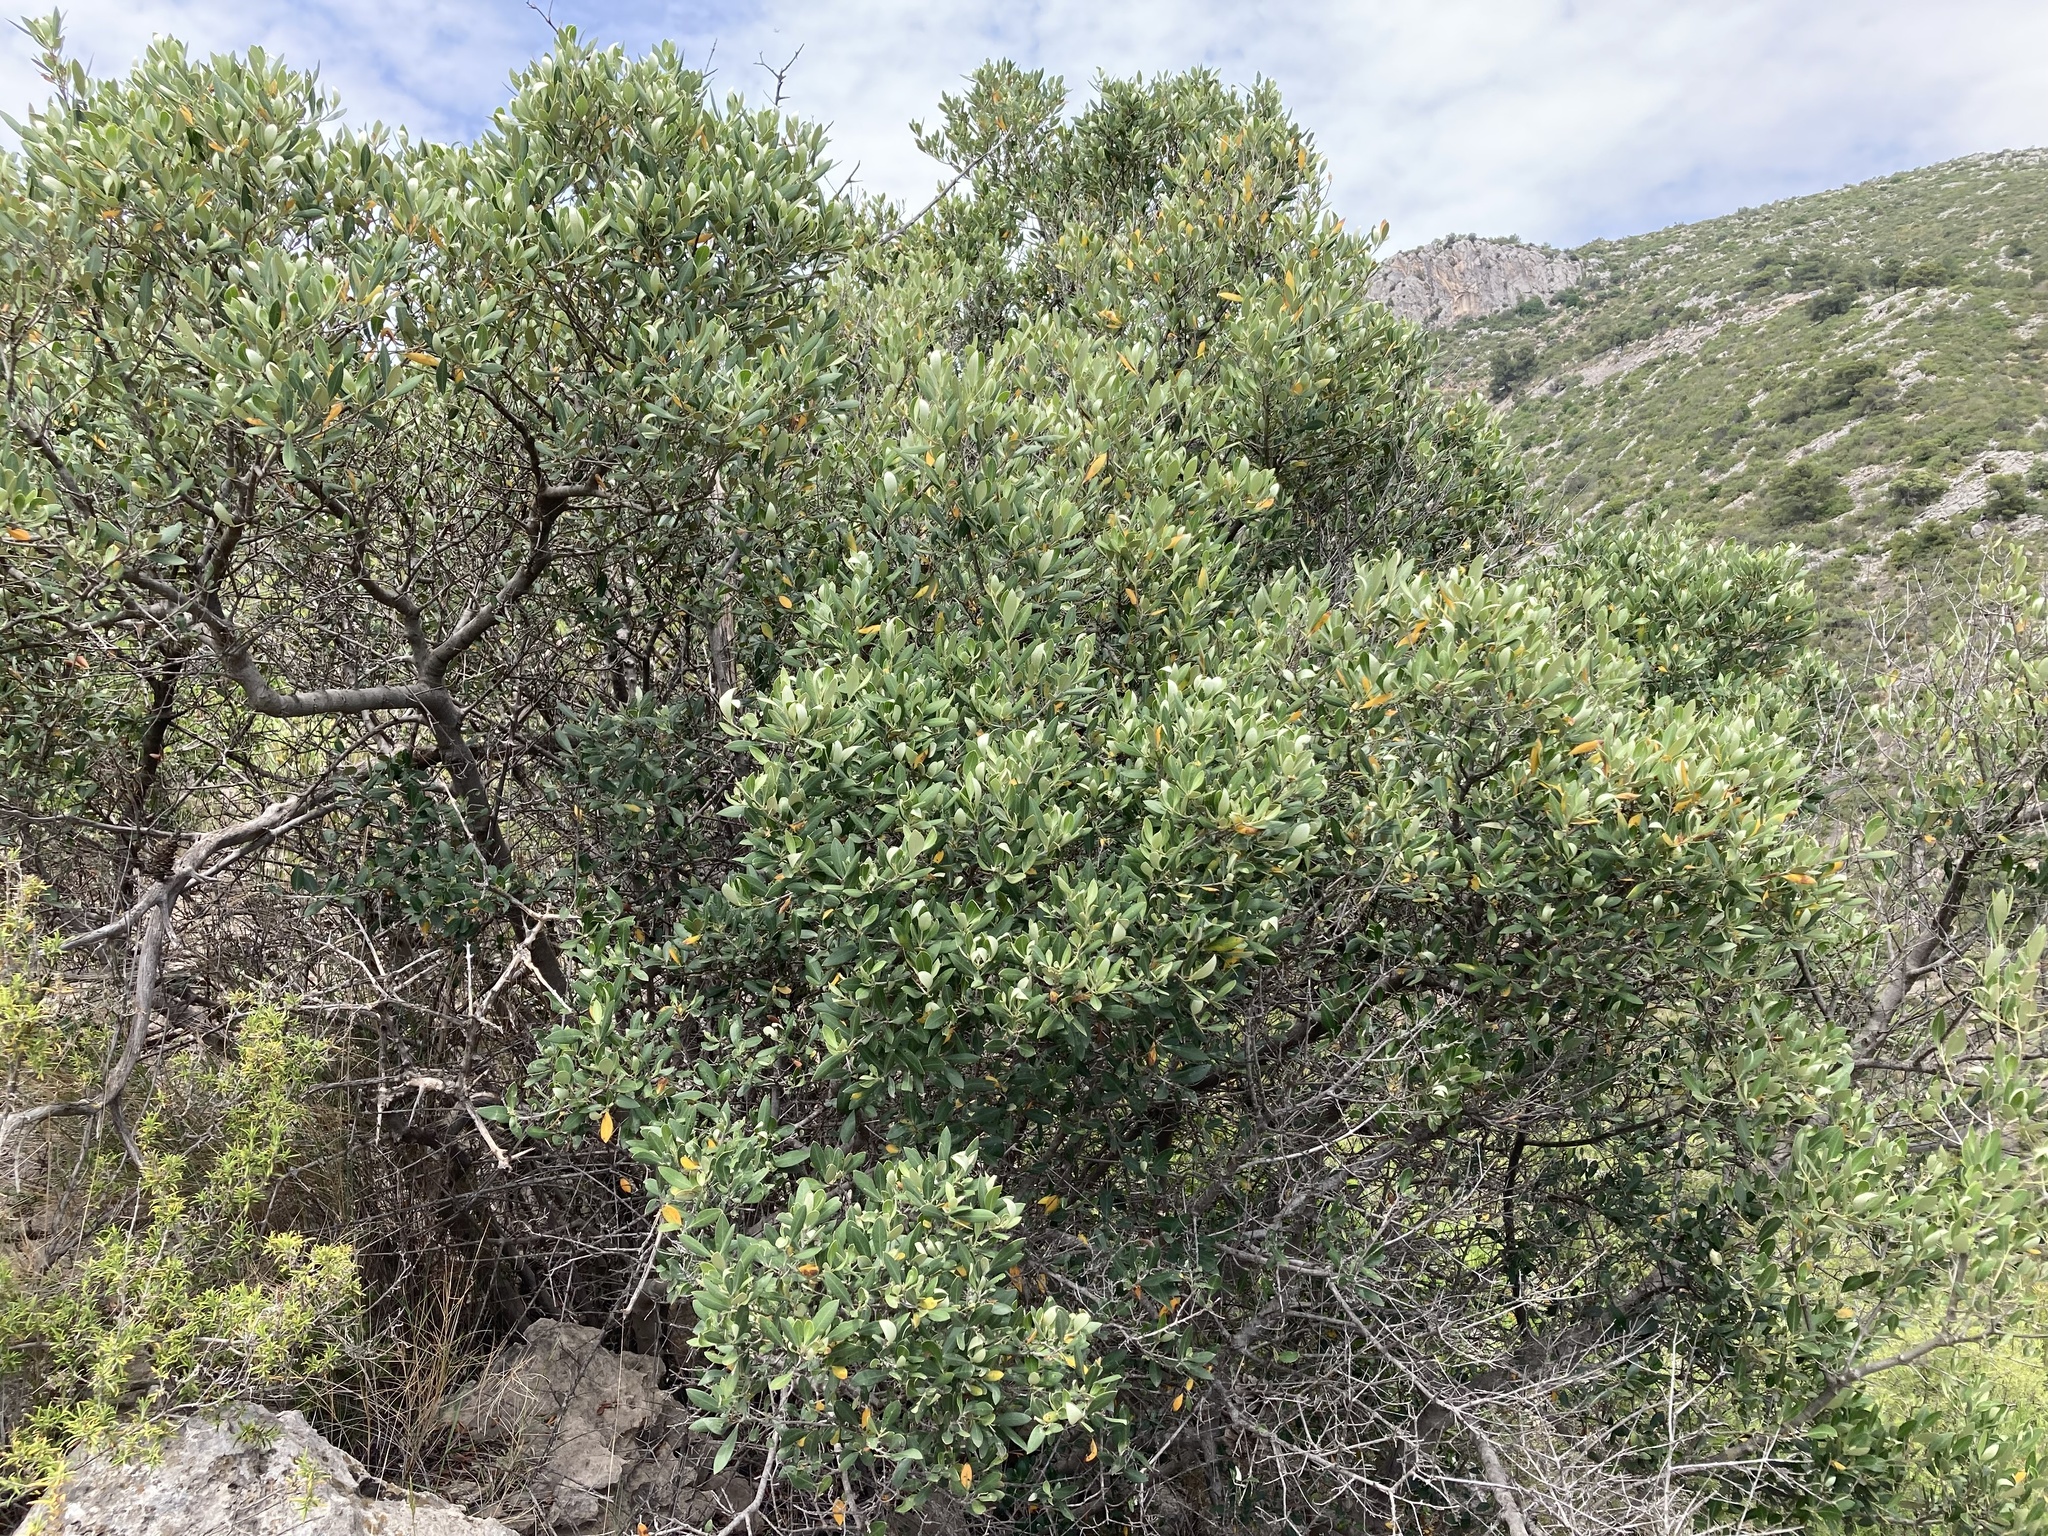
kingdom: Plantae
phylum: Tracheophyta
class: Magnoliopsida
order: Fabales
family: Fabaceae
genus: Ceratonia
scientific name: Ceratonia siliqua
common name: Carob
